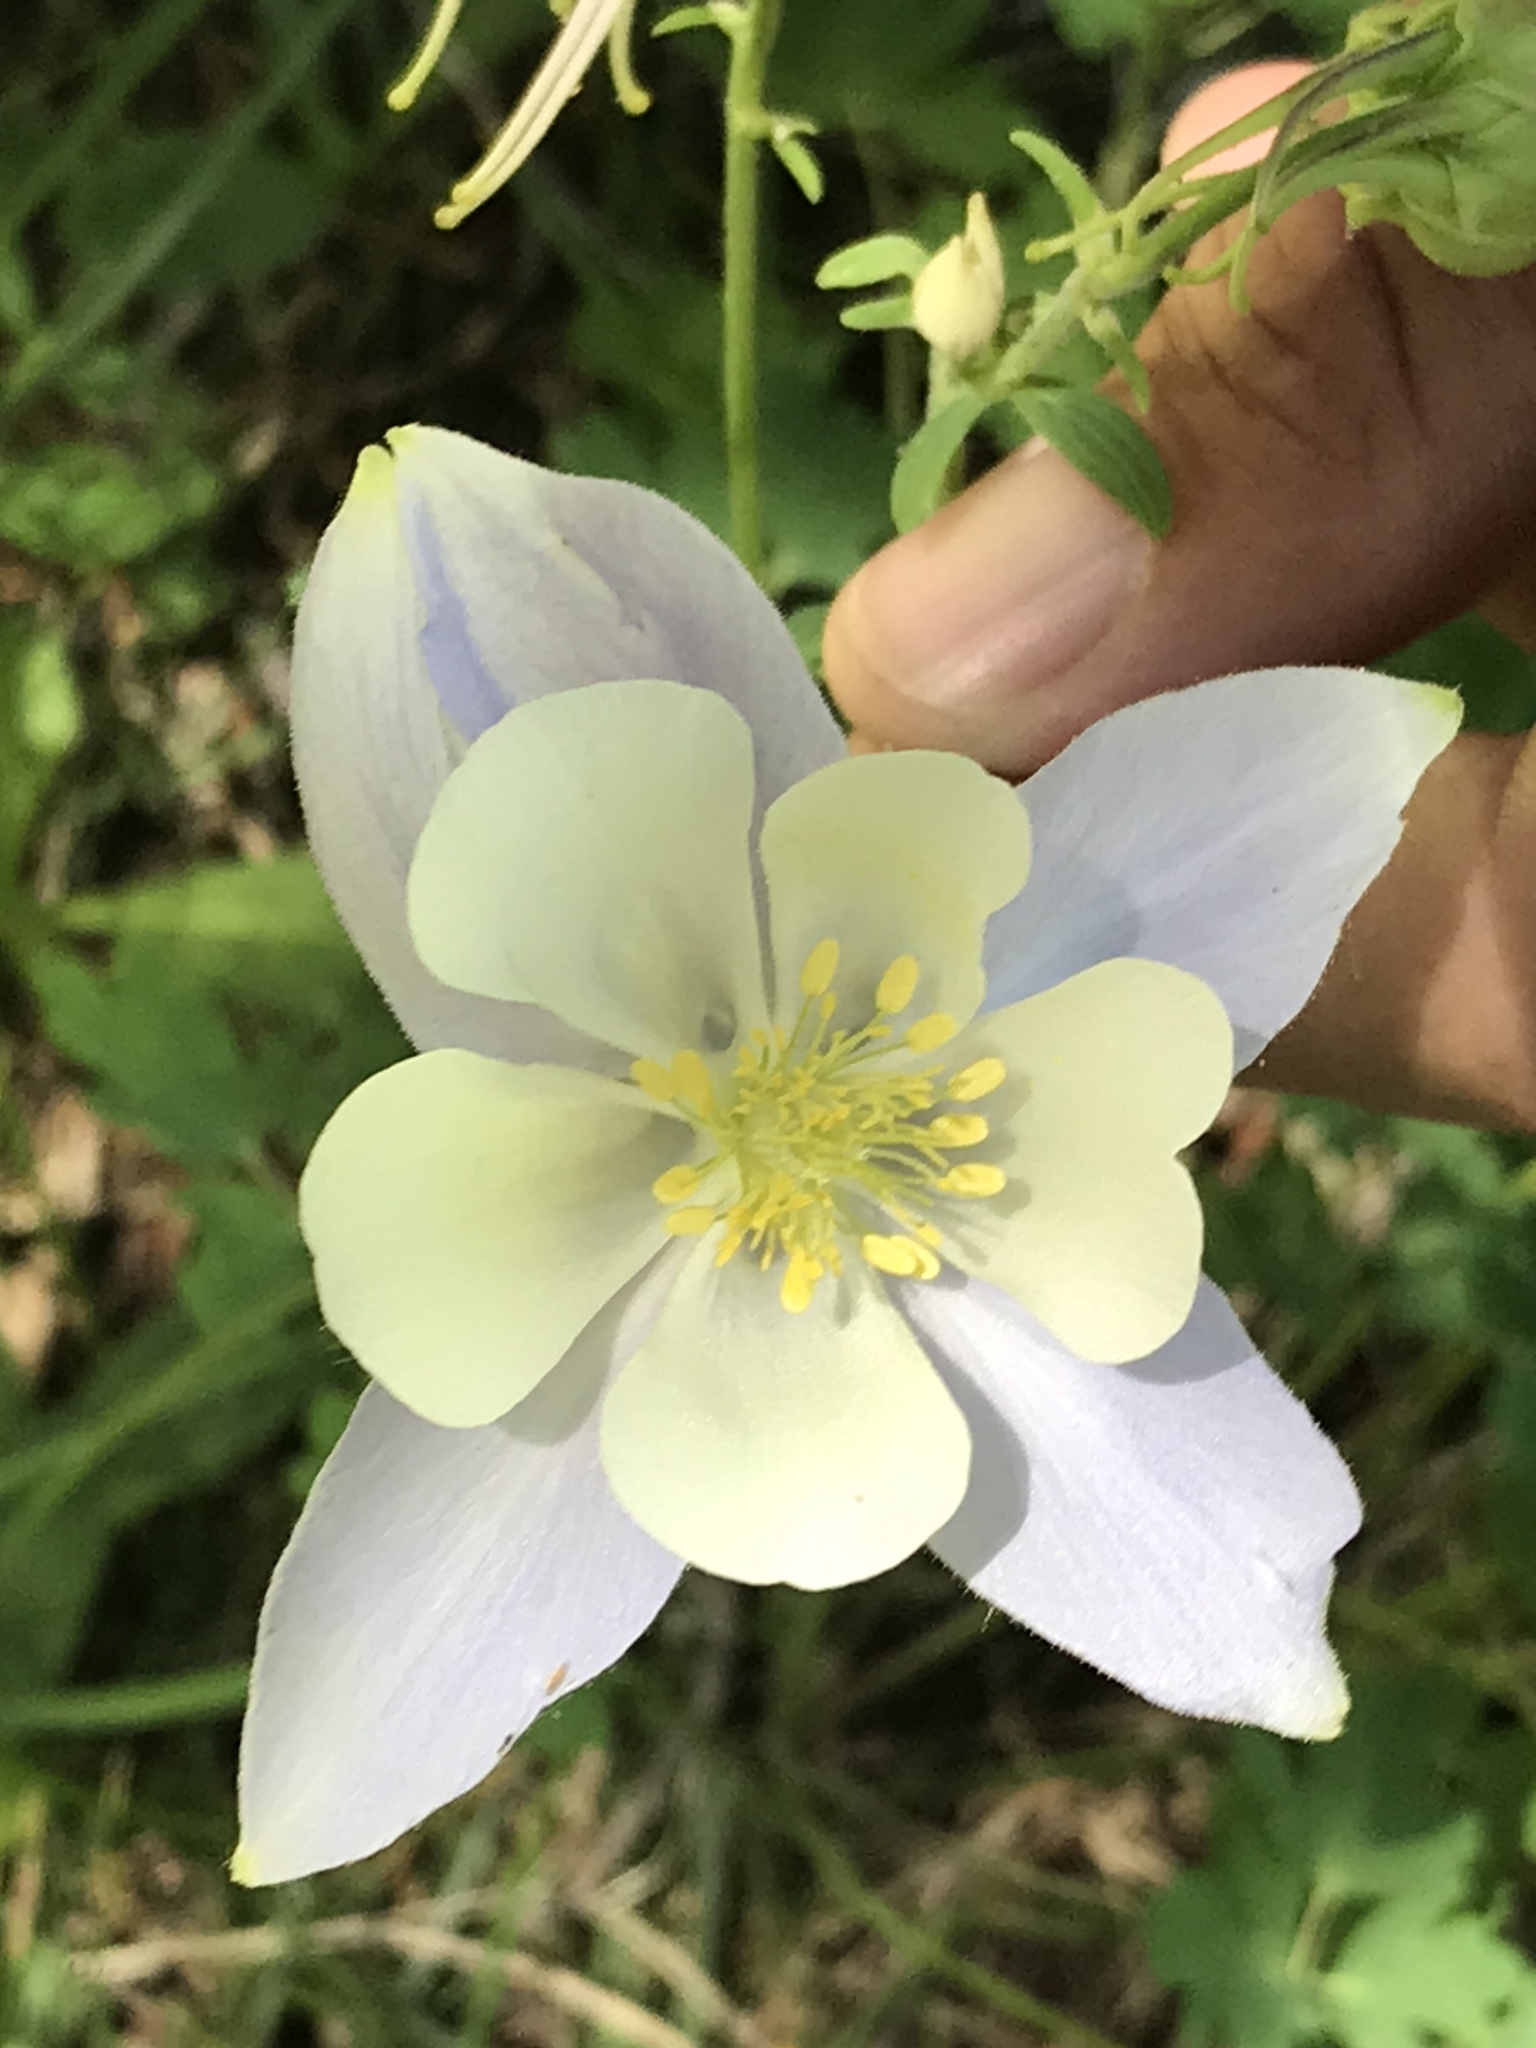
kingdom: Plantae
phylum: Tracheophyta
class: Magnoliopsida
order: Ranunculales
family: Ranunculaceae
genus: Aquilegia
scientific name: Aquilegia coerulea
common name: Rocky mountain columbine
